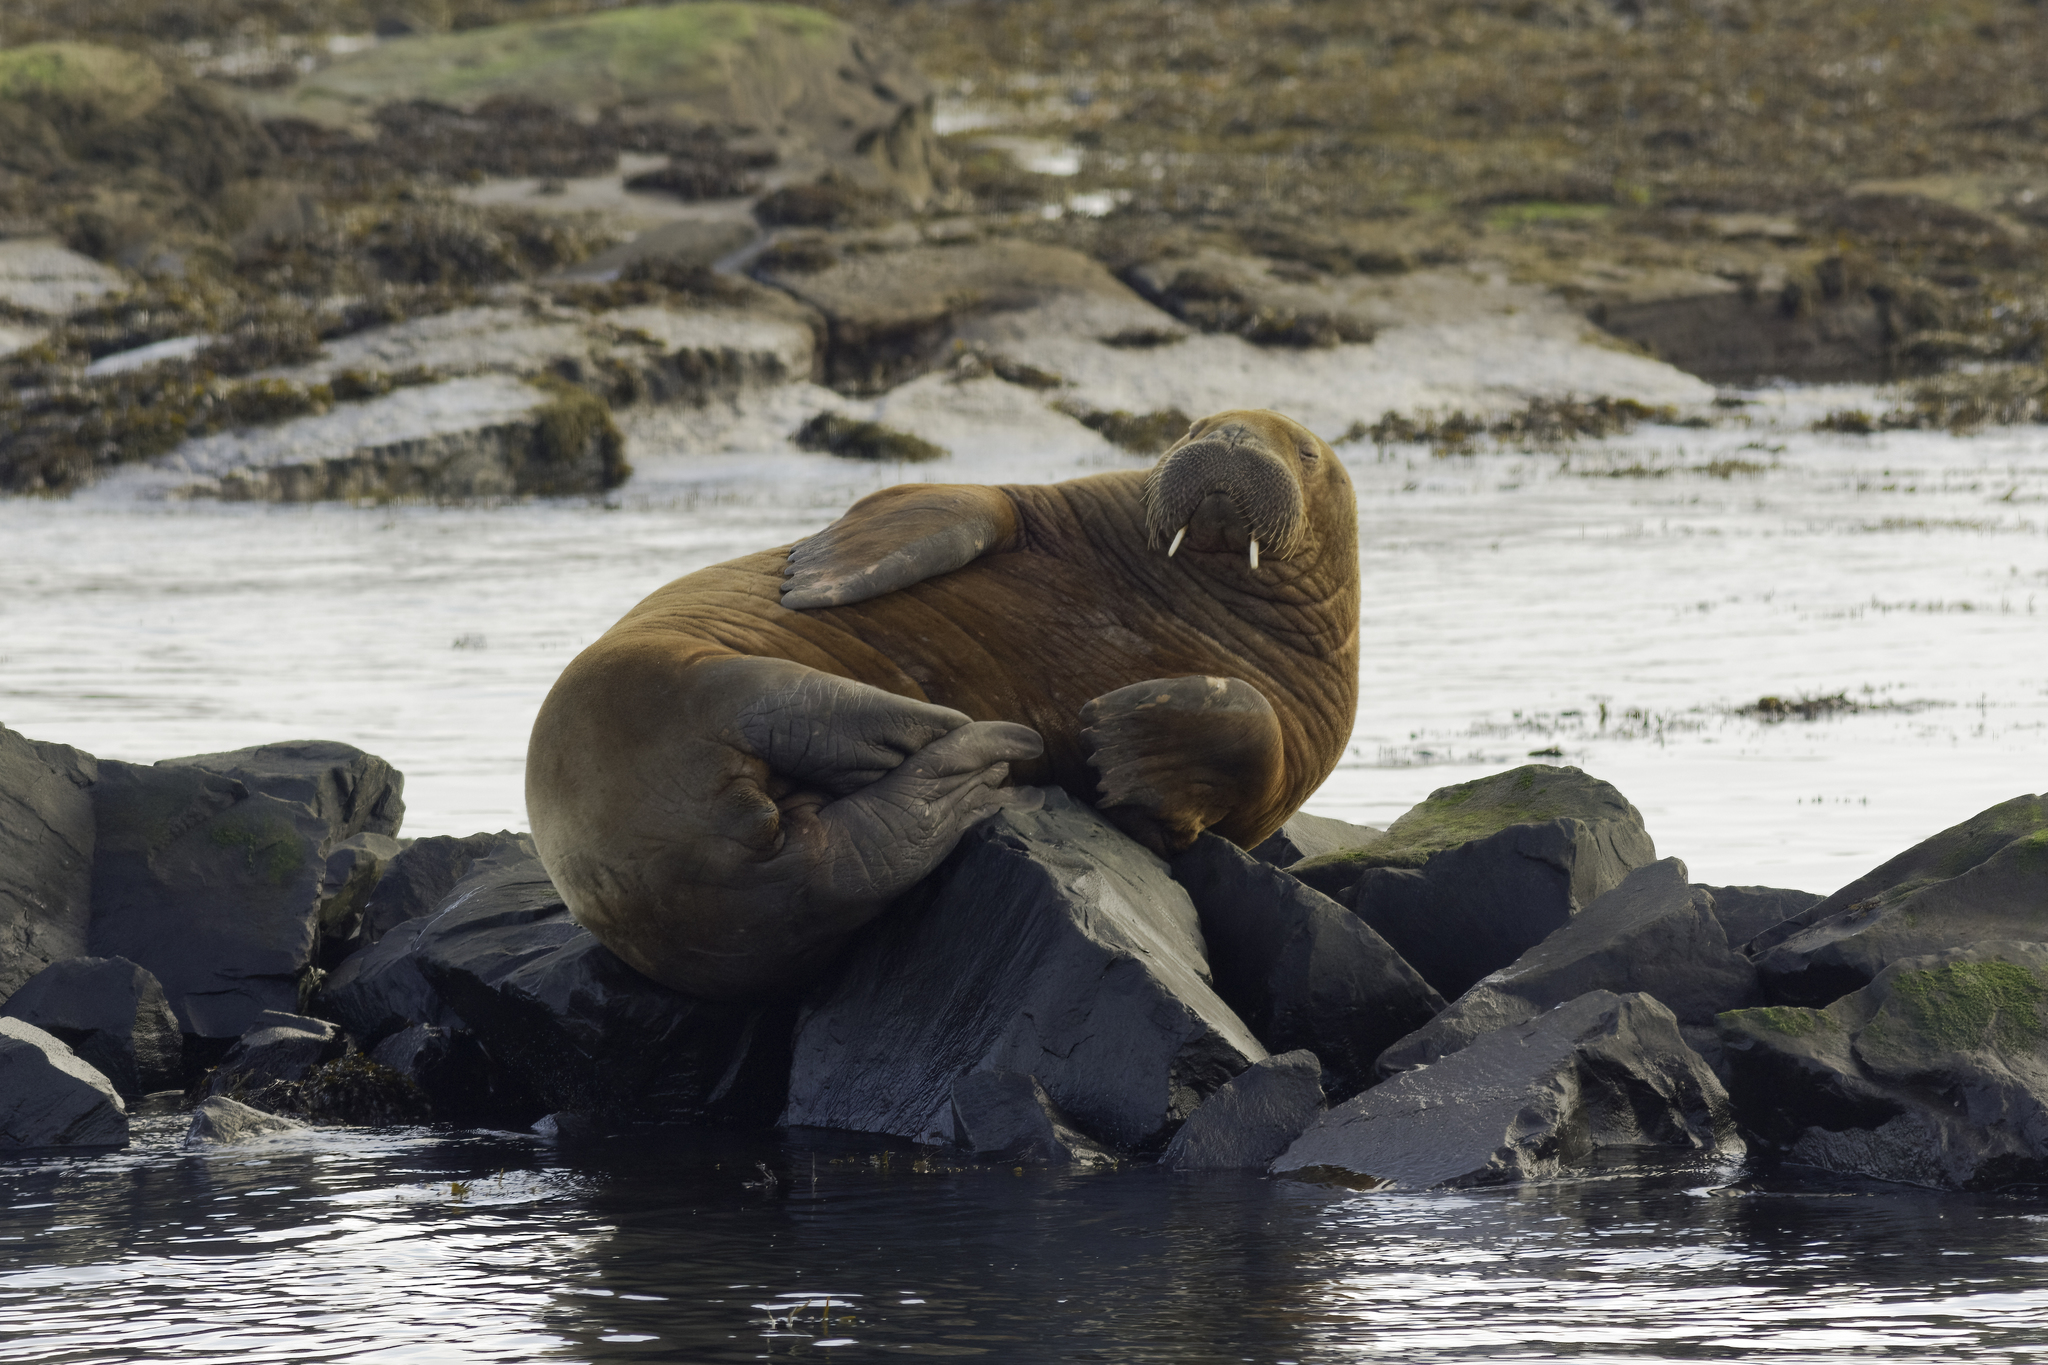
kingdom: Animalia
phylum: Chordata
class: Mammalia
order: Carnivora
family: Odobenidae
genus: Odobenus
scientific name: Odobenus rosmarus
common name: Walrus
